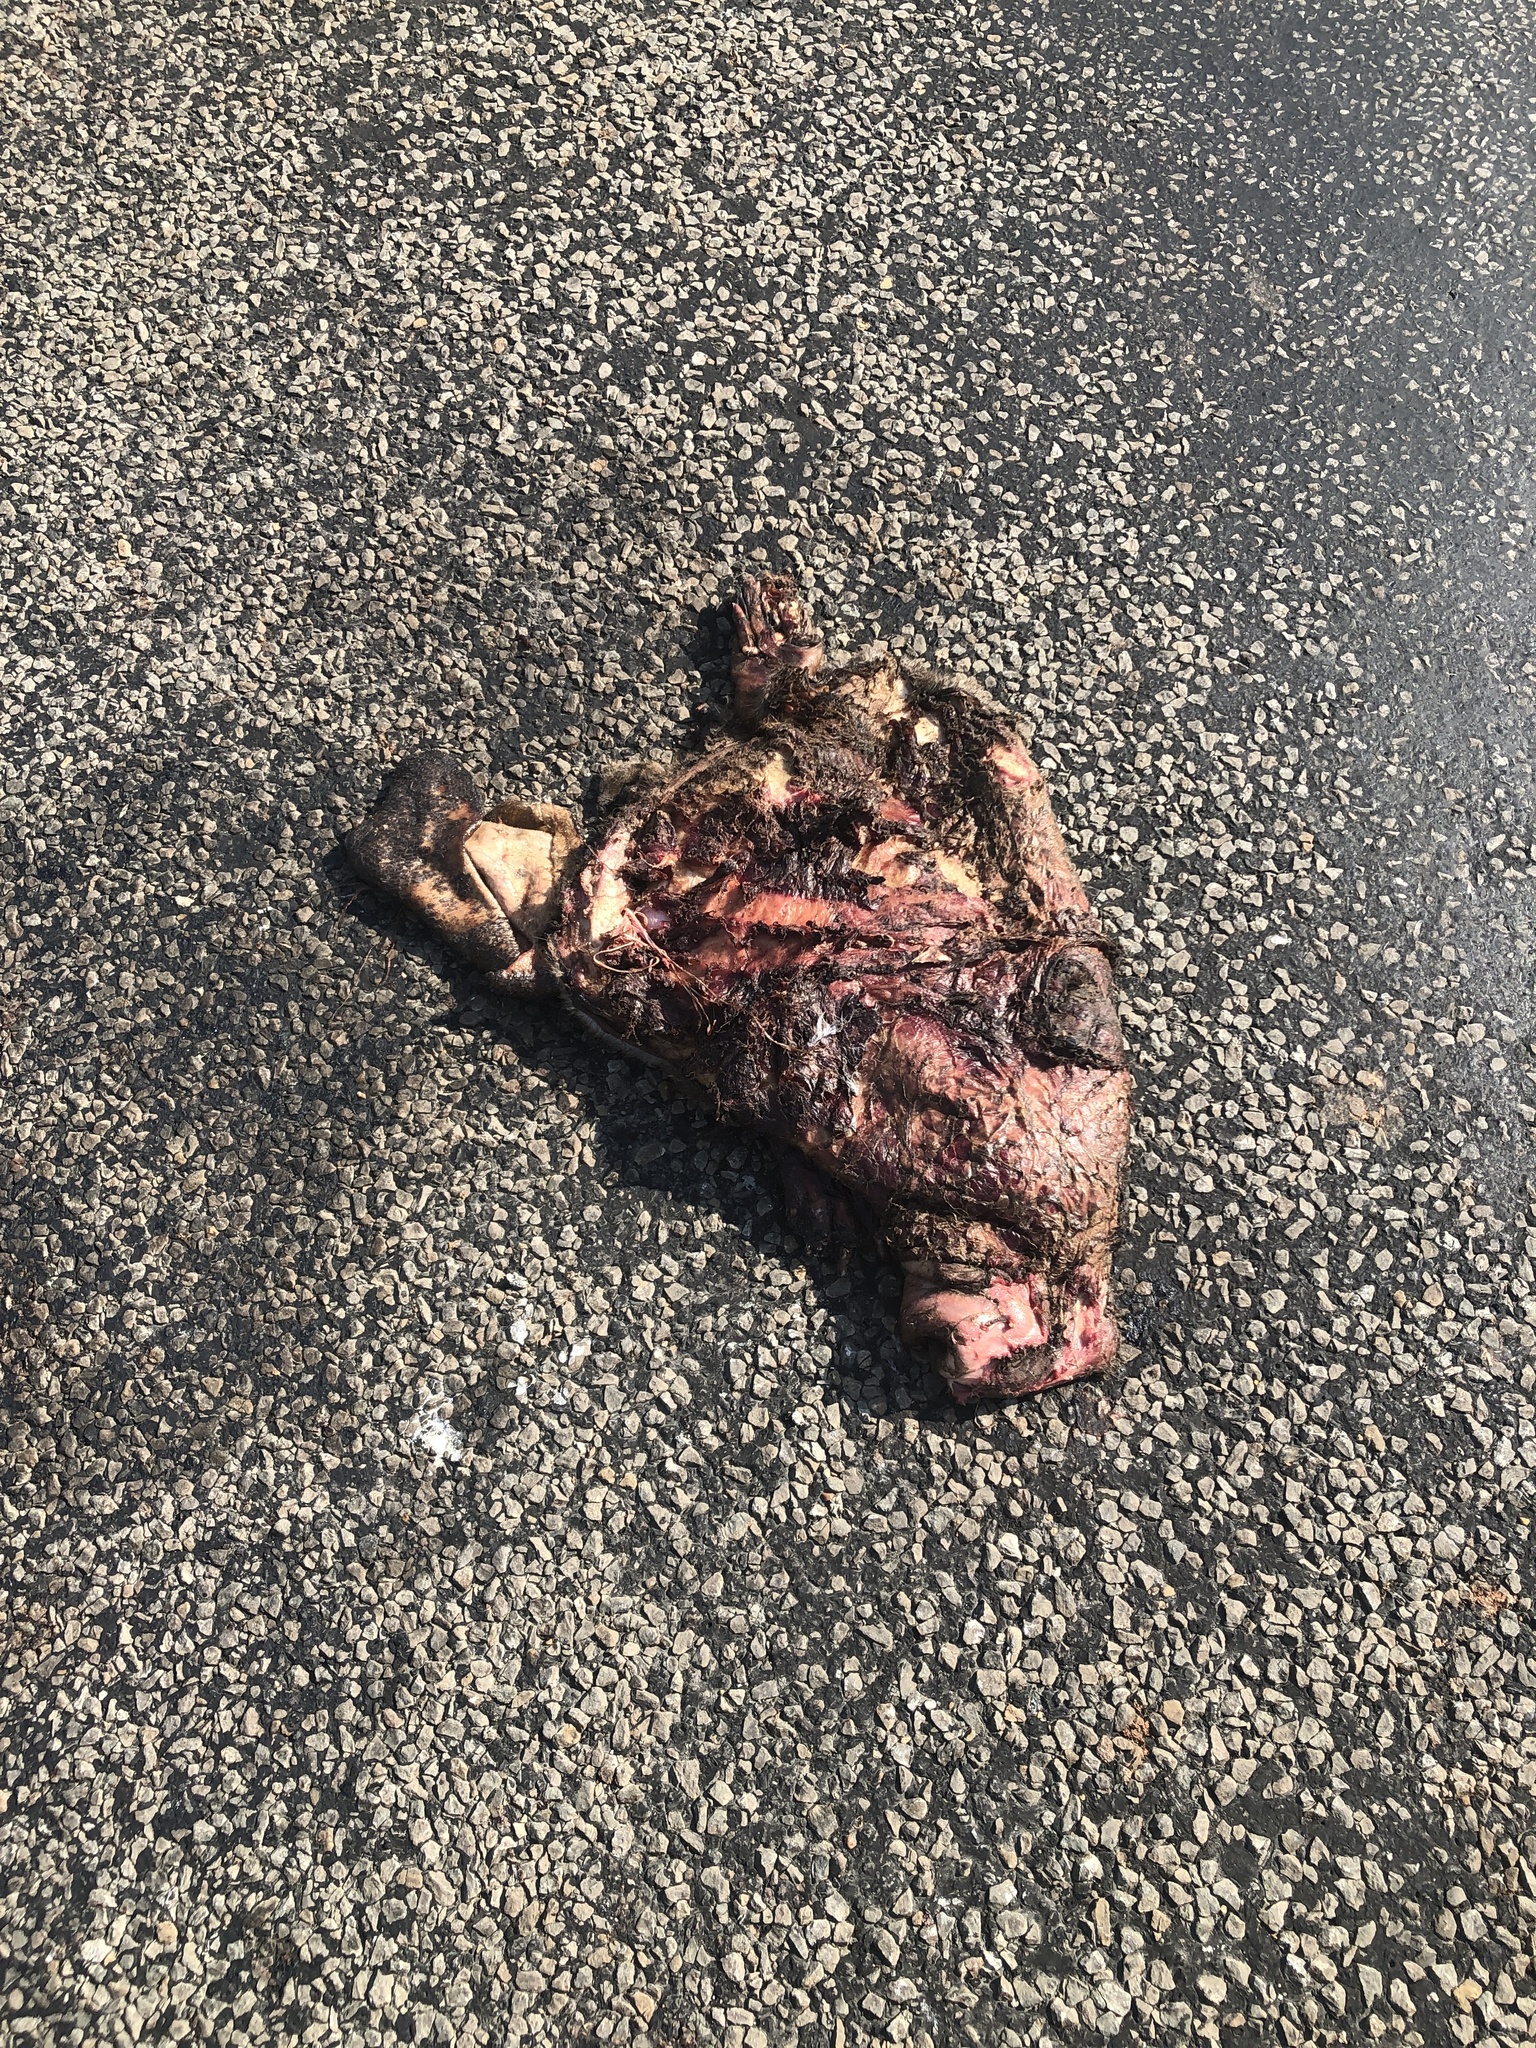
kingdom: Animalia
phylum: Chordata
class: Mammalia
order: Rodentia
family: Castoridae
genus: Castor
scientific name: Castor canadensis
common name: American beaver
